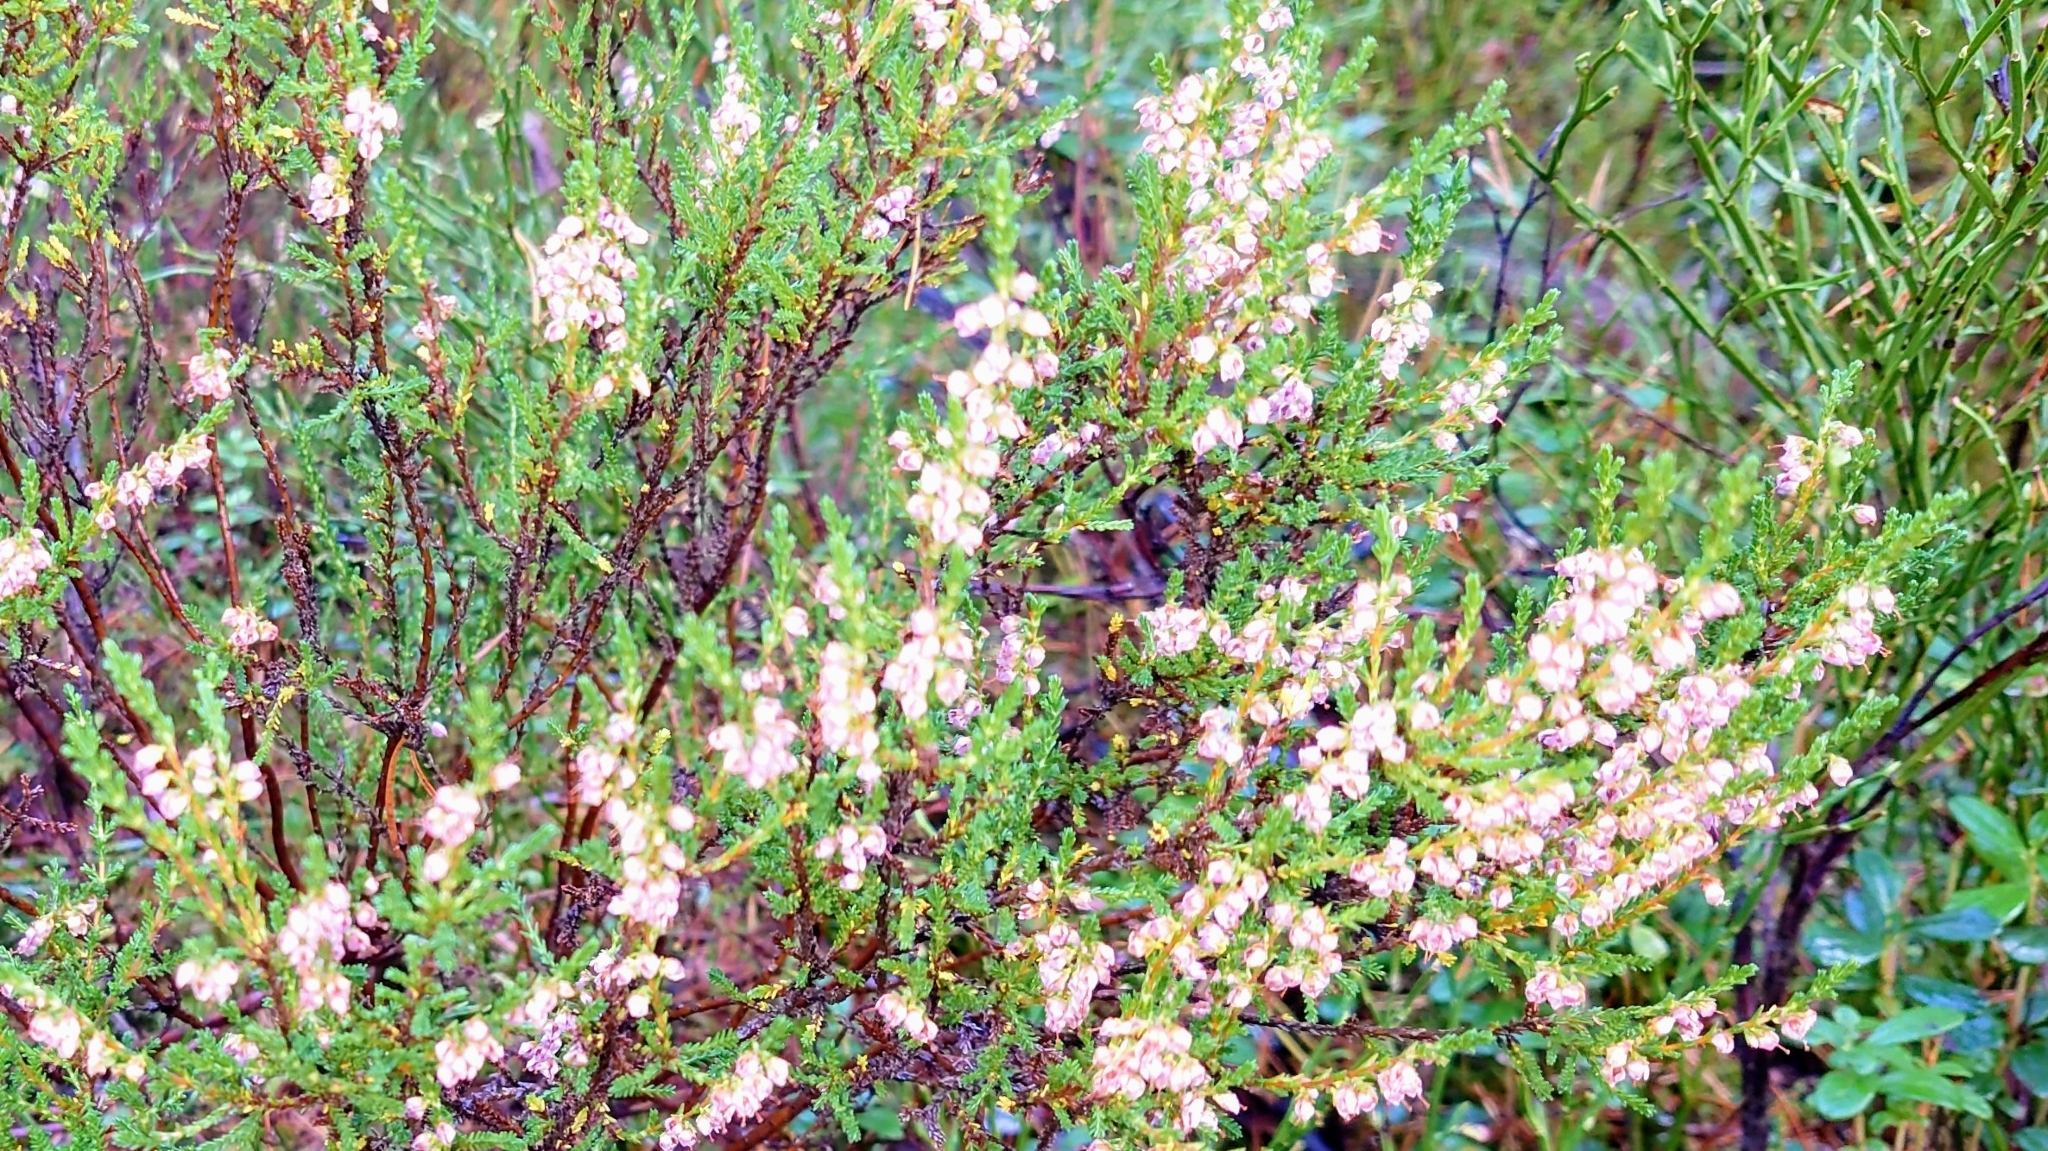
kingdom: Plantae
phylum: Tracheophyta
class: Magnoliopsida
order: Ericales
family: Ericaceae
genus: Calluna
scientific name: Calluna vulgaris
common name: Heather
